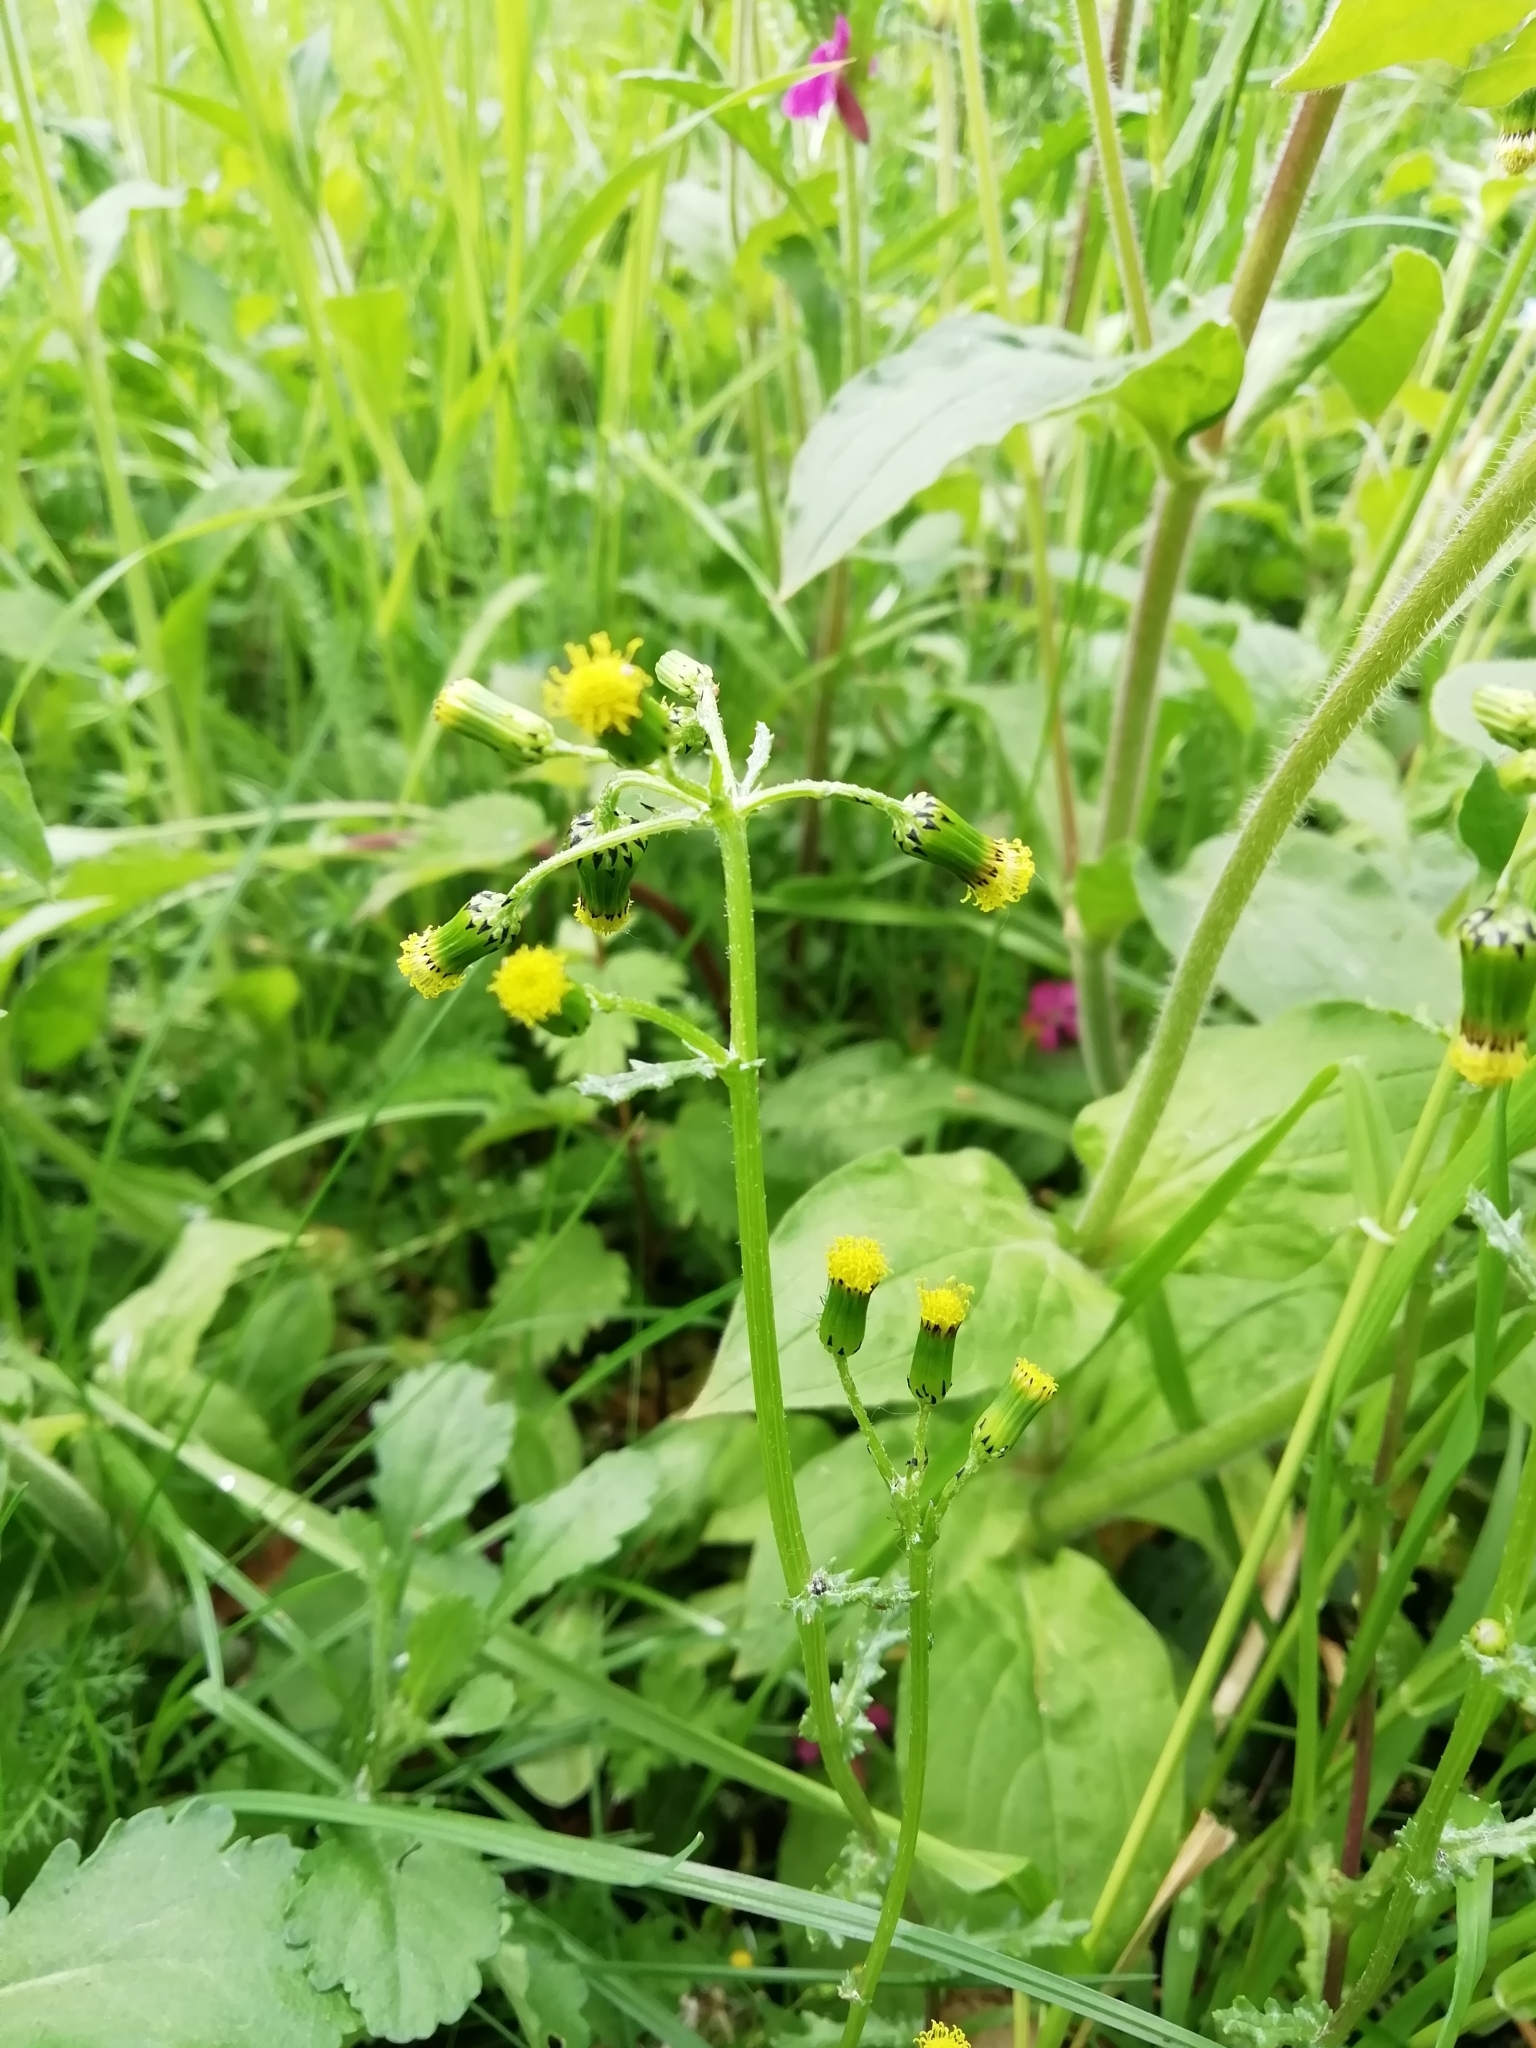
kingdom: Plantae
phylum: Tracheophyta
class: Magnoliopsida
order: Asterales
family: Asteraceae
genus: Senecio
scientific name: Senecio vulgaris
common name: Old-man-in-the-spring
